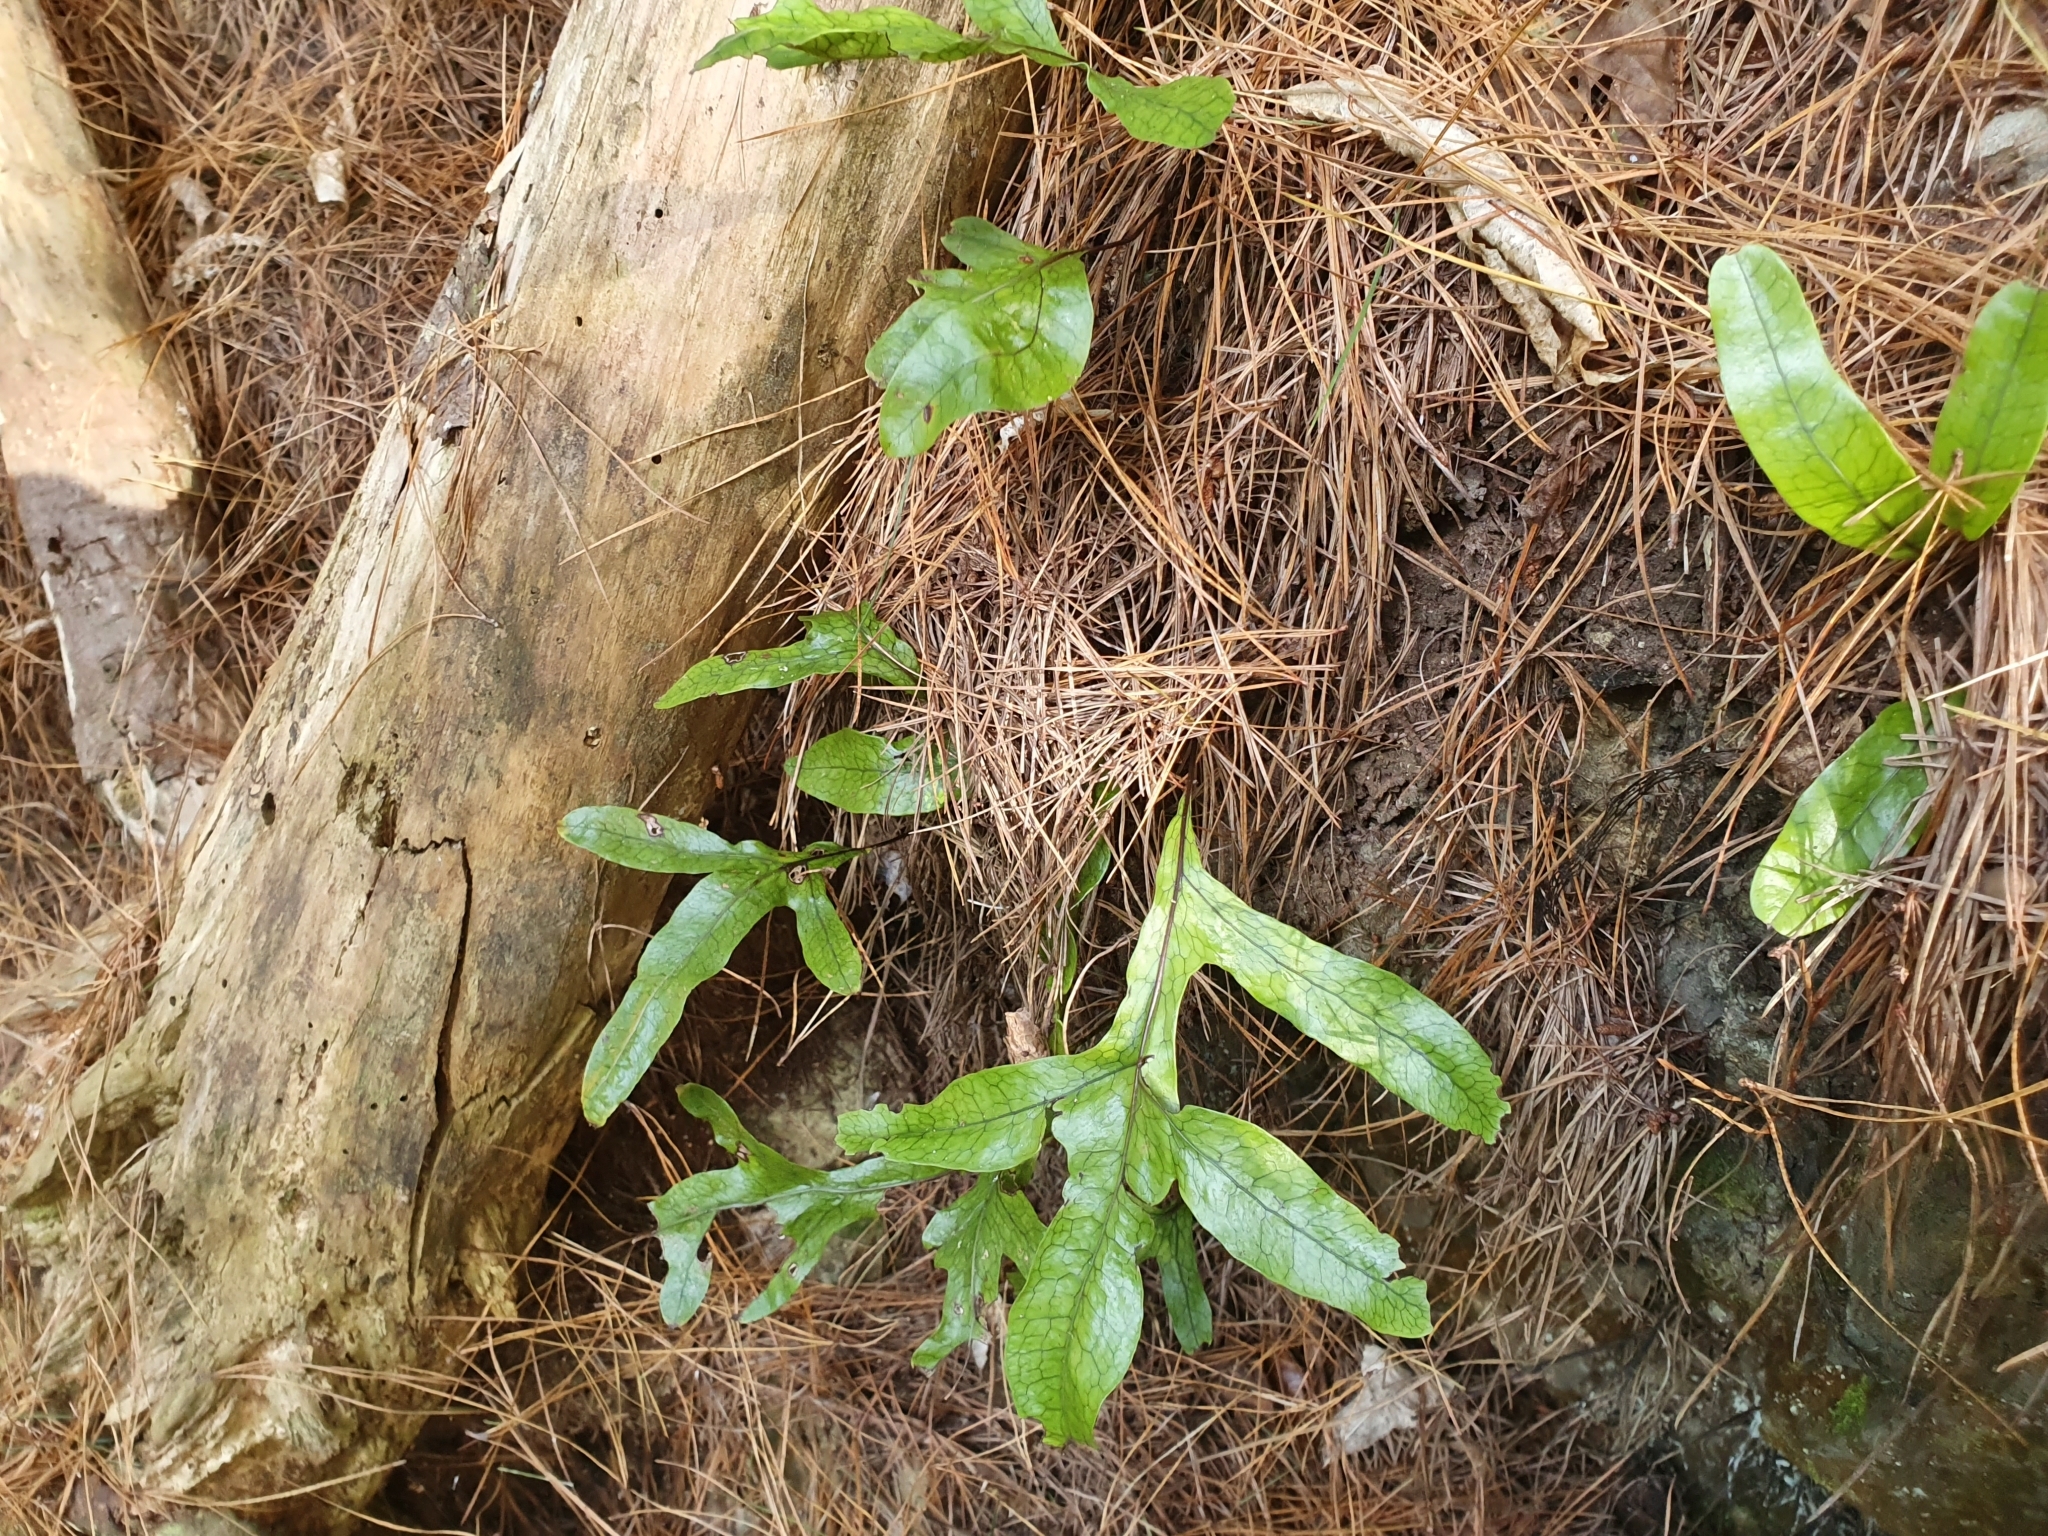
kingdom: Plantae
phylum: Tracheophyta
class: Polypodiopsida
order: Polypodiales
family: Polypodiaceae
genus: Lecanopteris
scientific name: Lecanopteris pustulata
